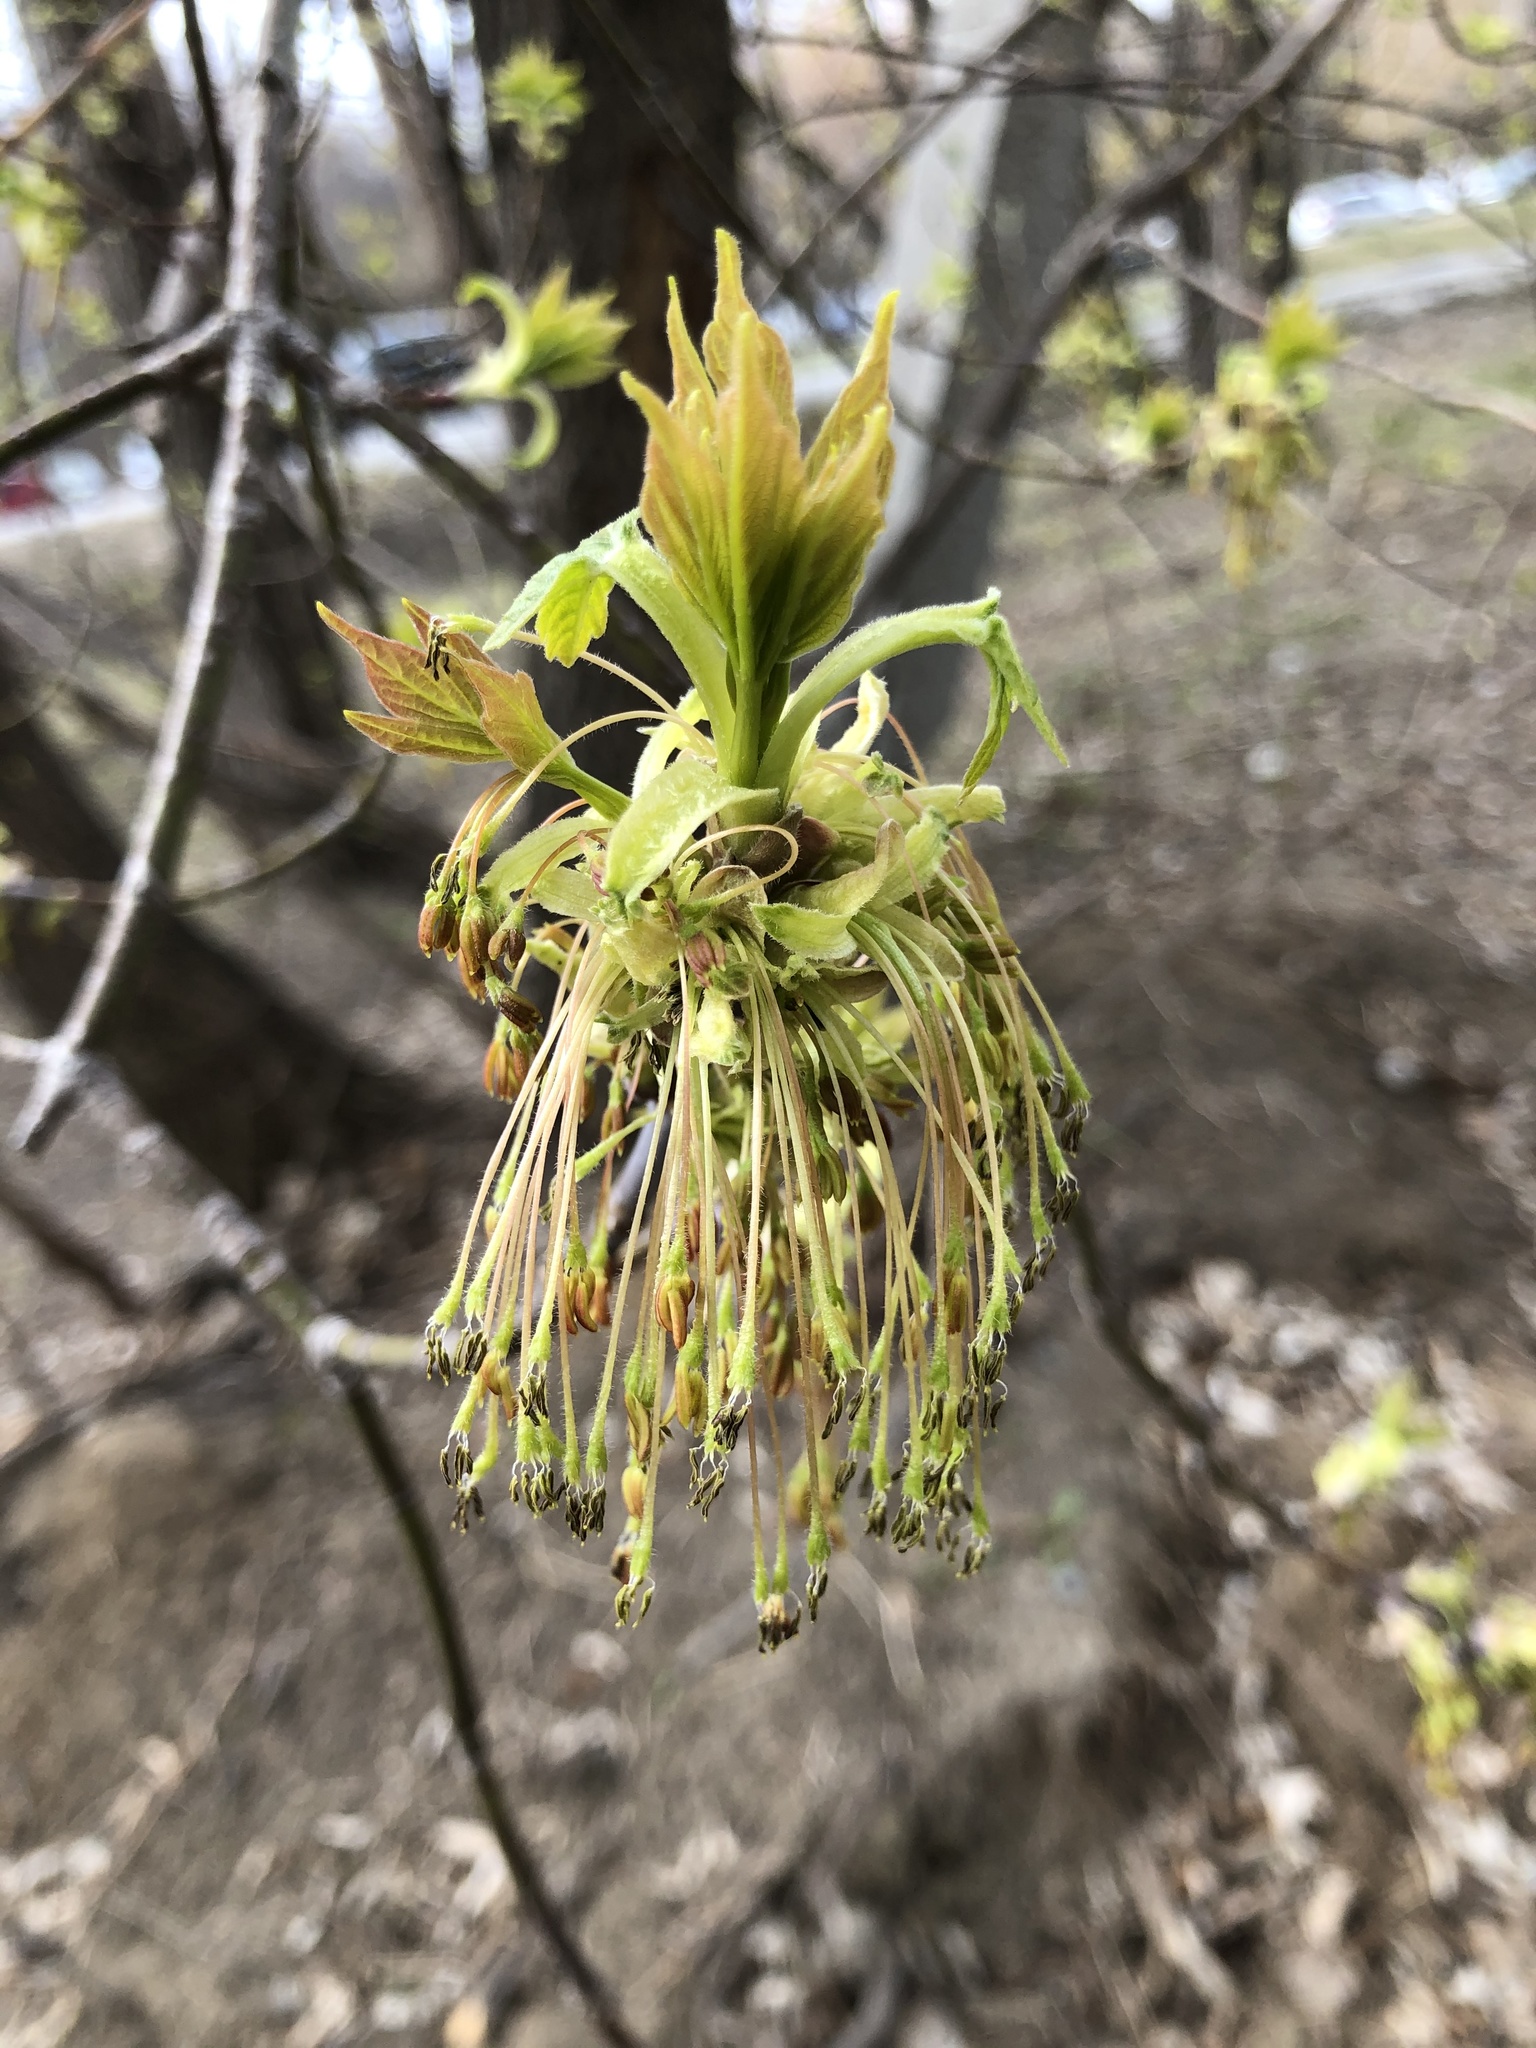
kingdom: Plantae
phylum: Tracheophyta
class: Magnoliopsida
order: Sapindales
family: Sapindaceae
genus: Acer
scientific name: Acer negundo
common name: Ashleaf maple
